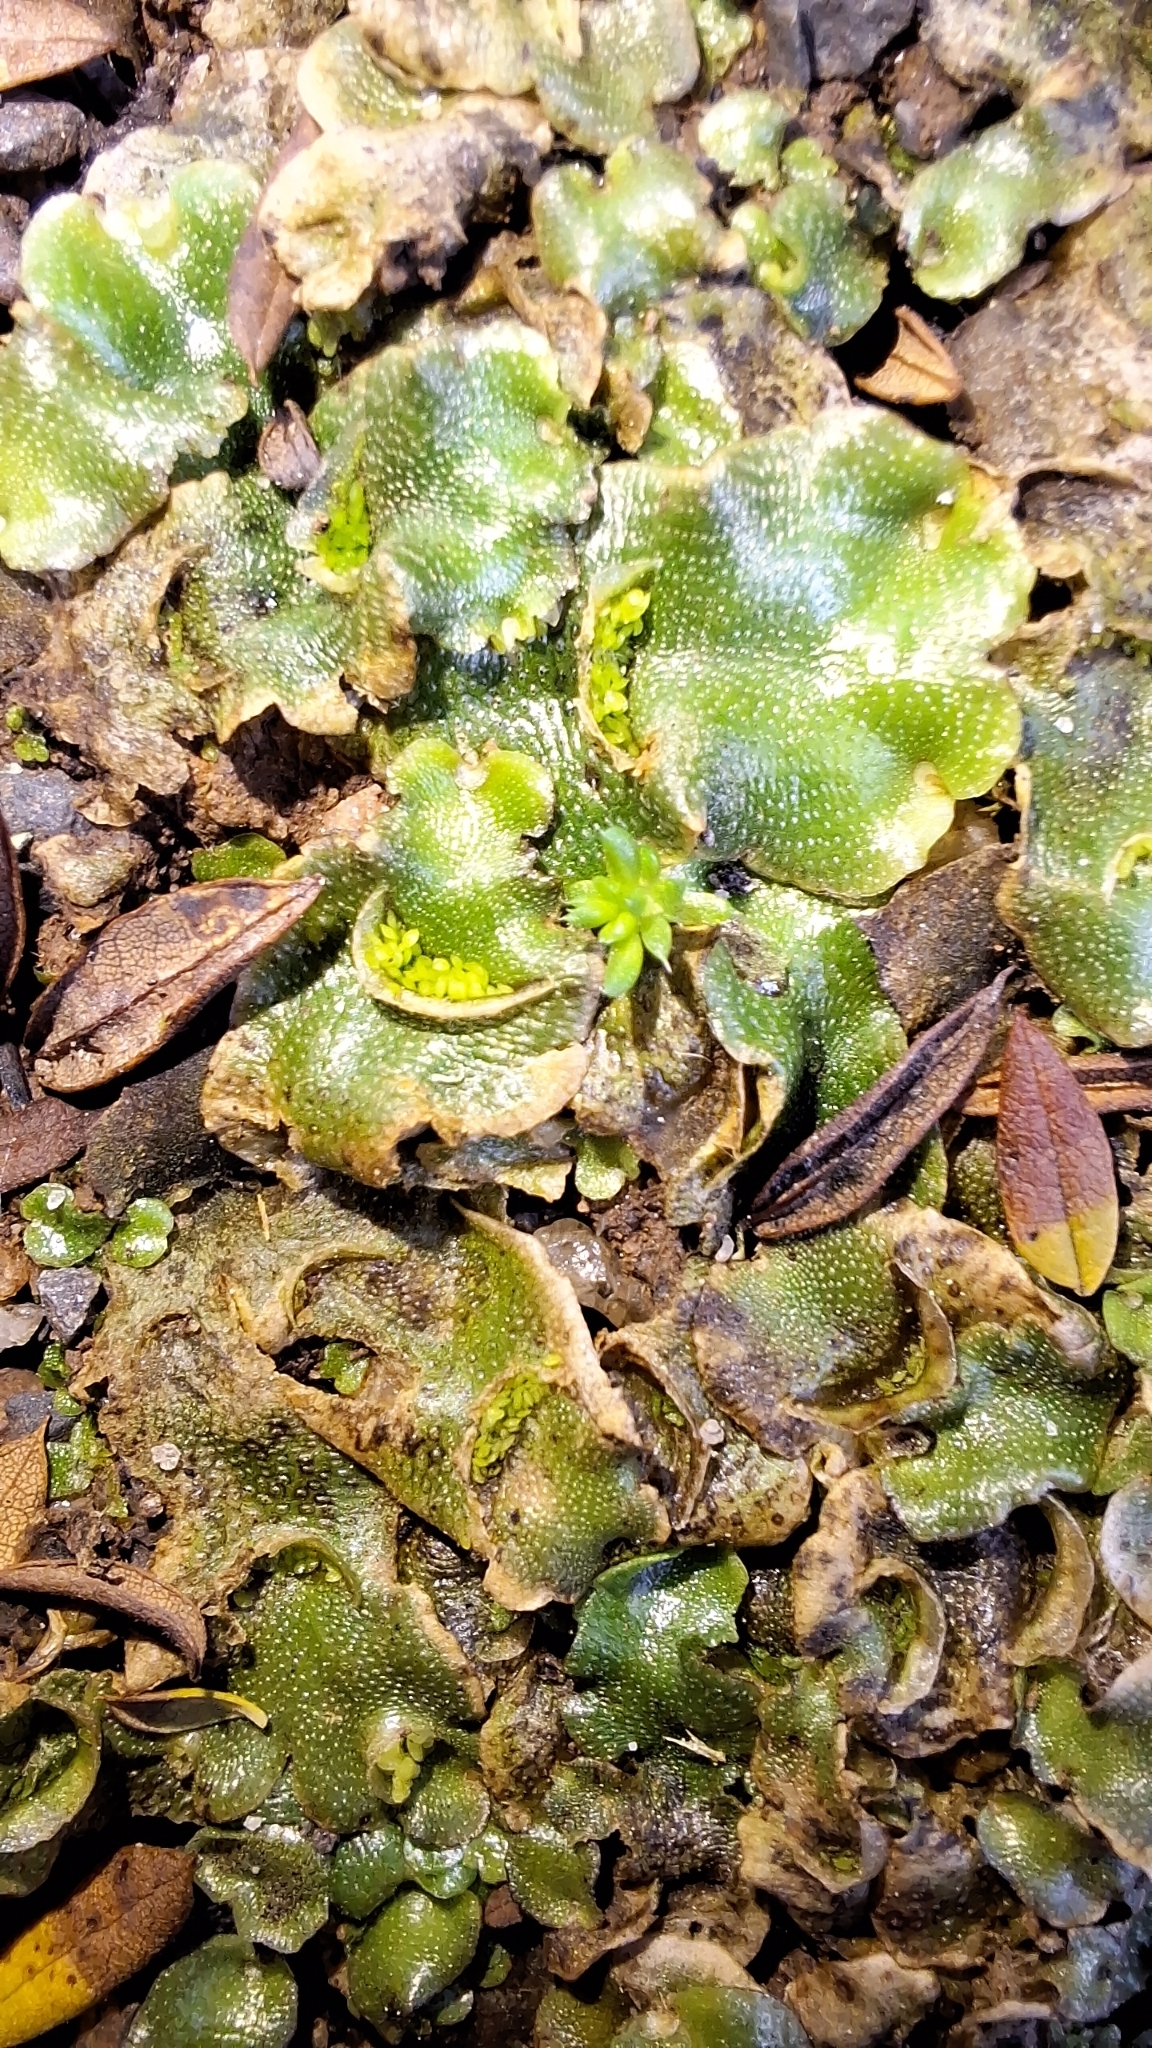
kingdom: Plantae
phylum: Marchantiophyta
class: Marchantiopsida
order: Lunulariales
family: Lunulariaceae
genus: Lunularia
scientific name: Lunularia cruciata
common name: Crescent-cup liverwort
